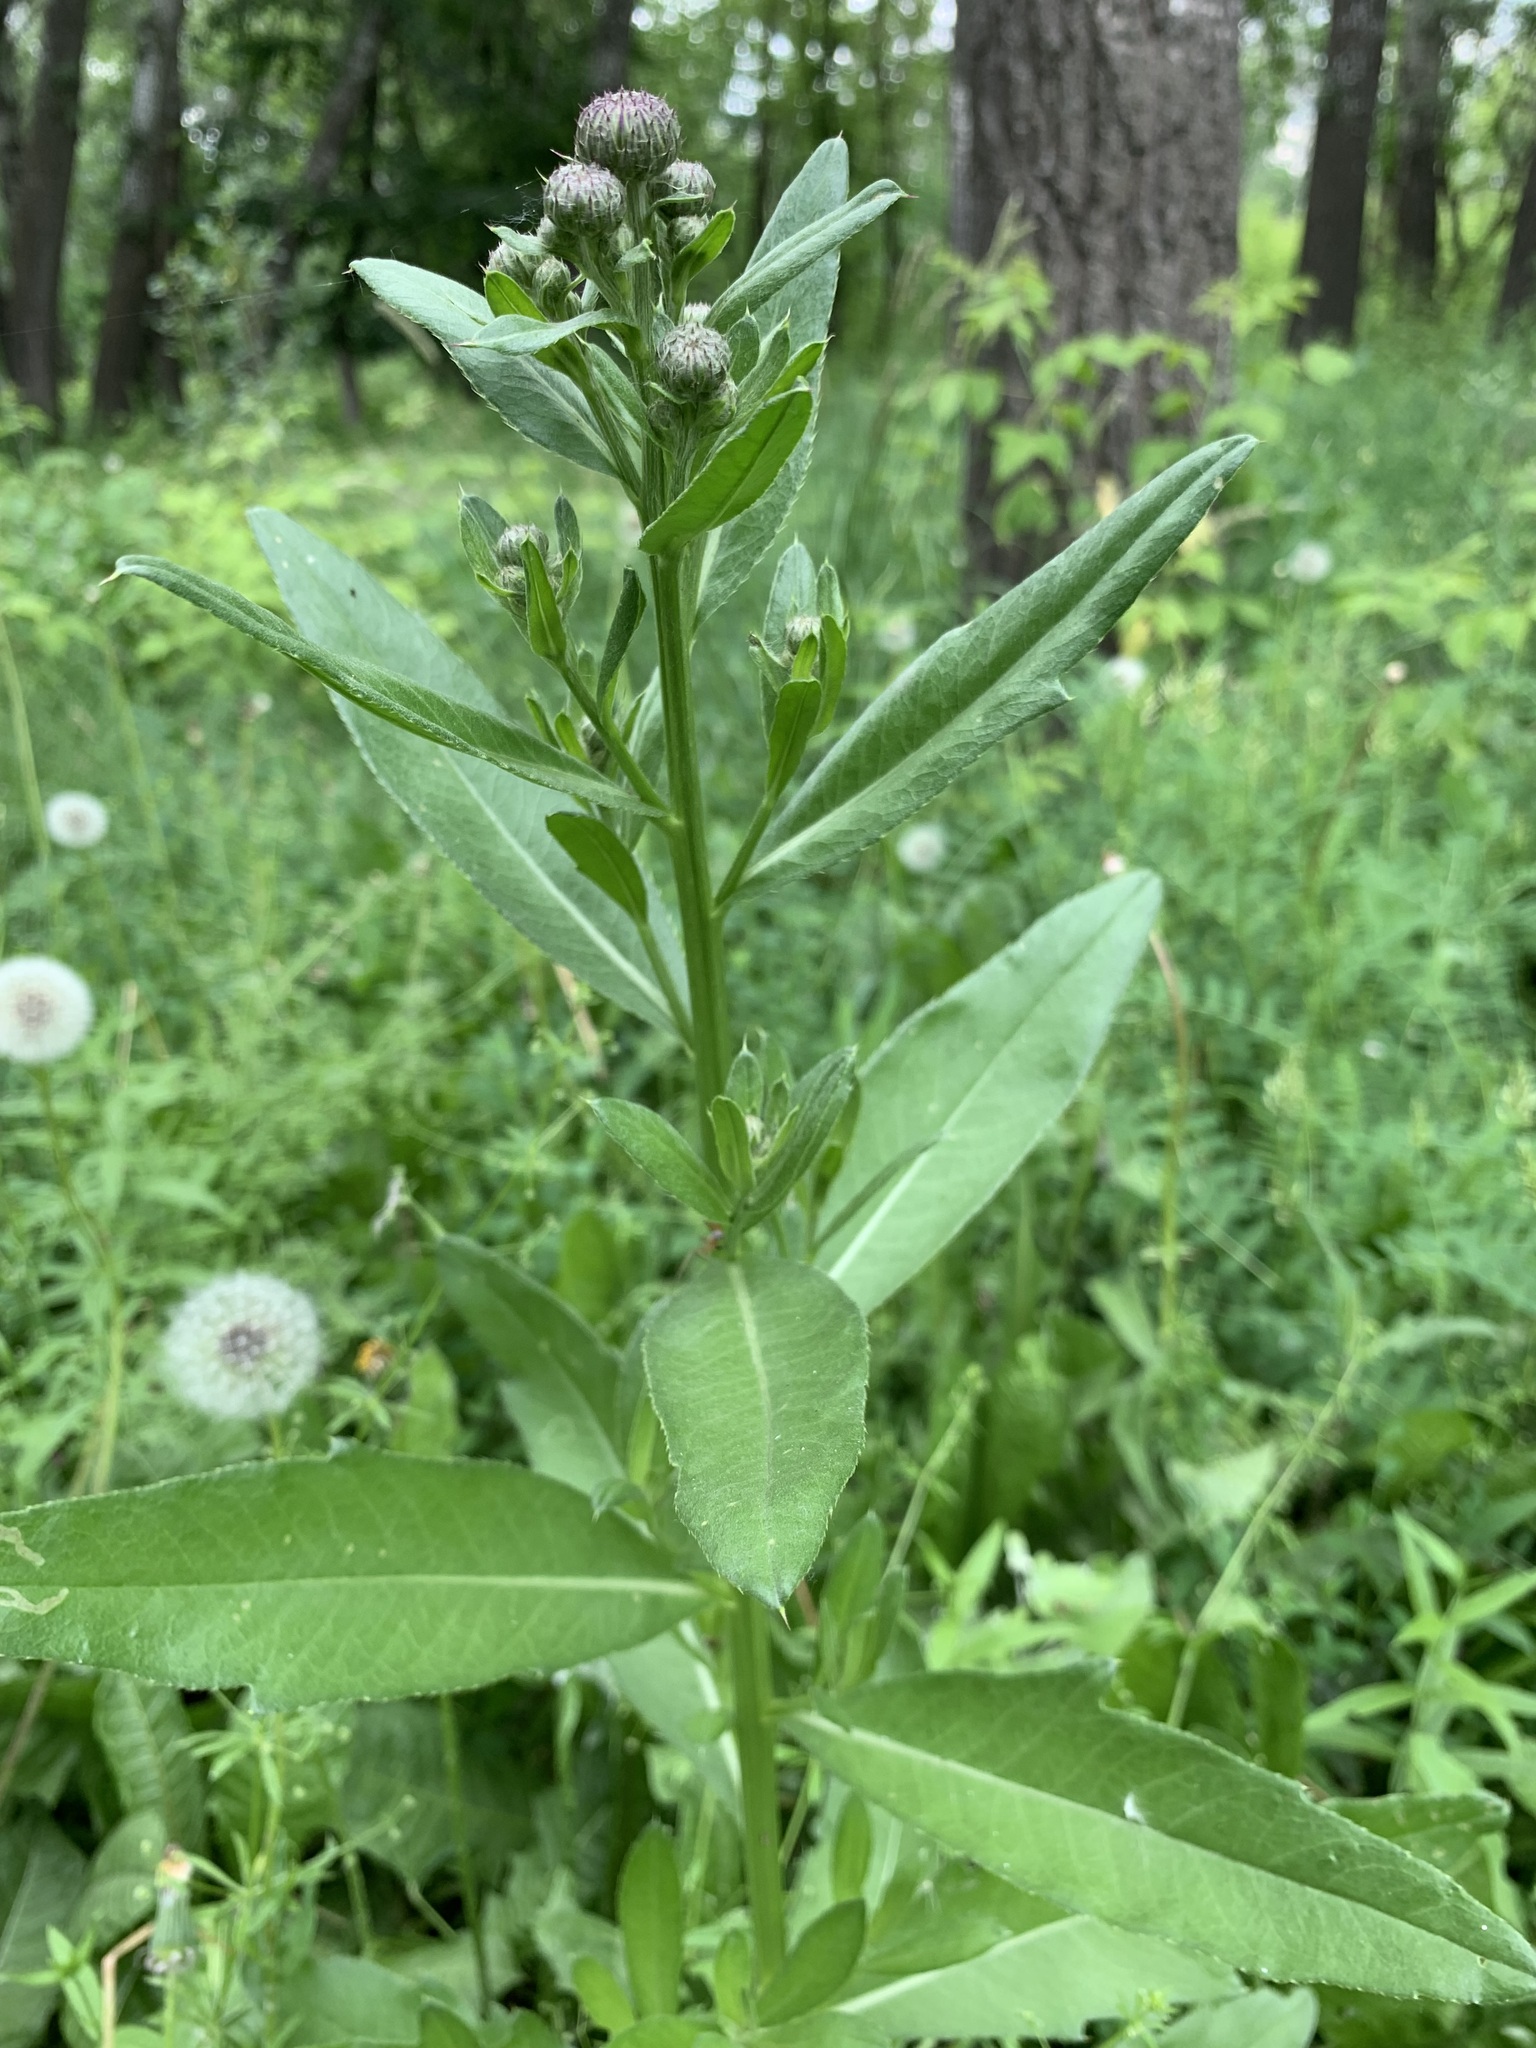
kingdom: Plantae
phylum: Tracheophyta
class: Magnoliopsida
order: Asterales
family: Asteraceae
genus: Cirsium
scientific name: Cirsium arvense
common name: Creeping thistle
